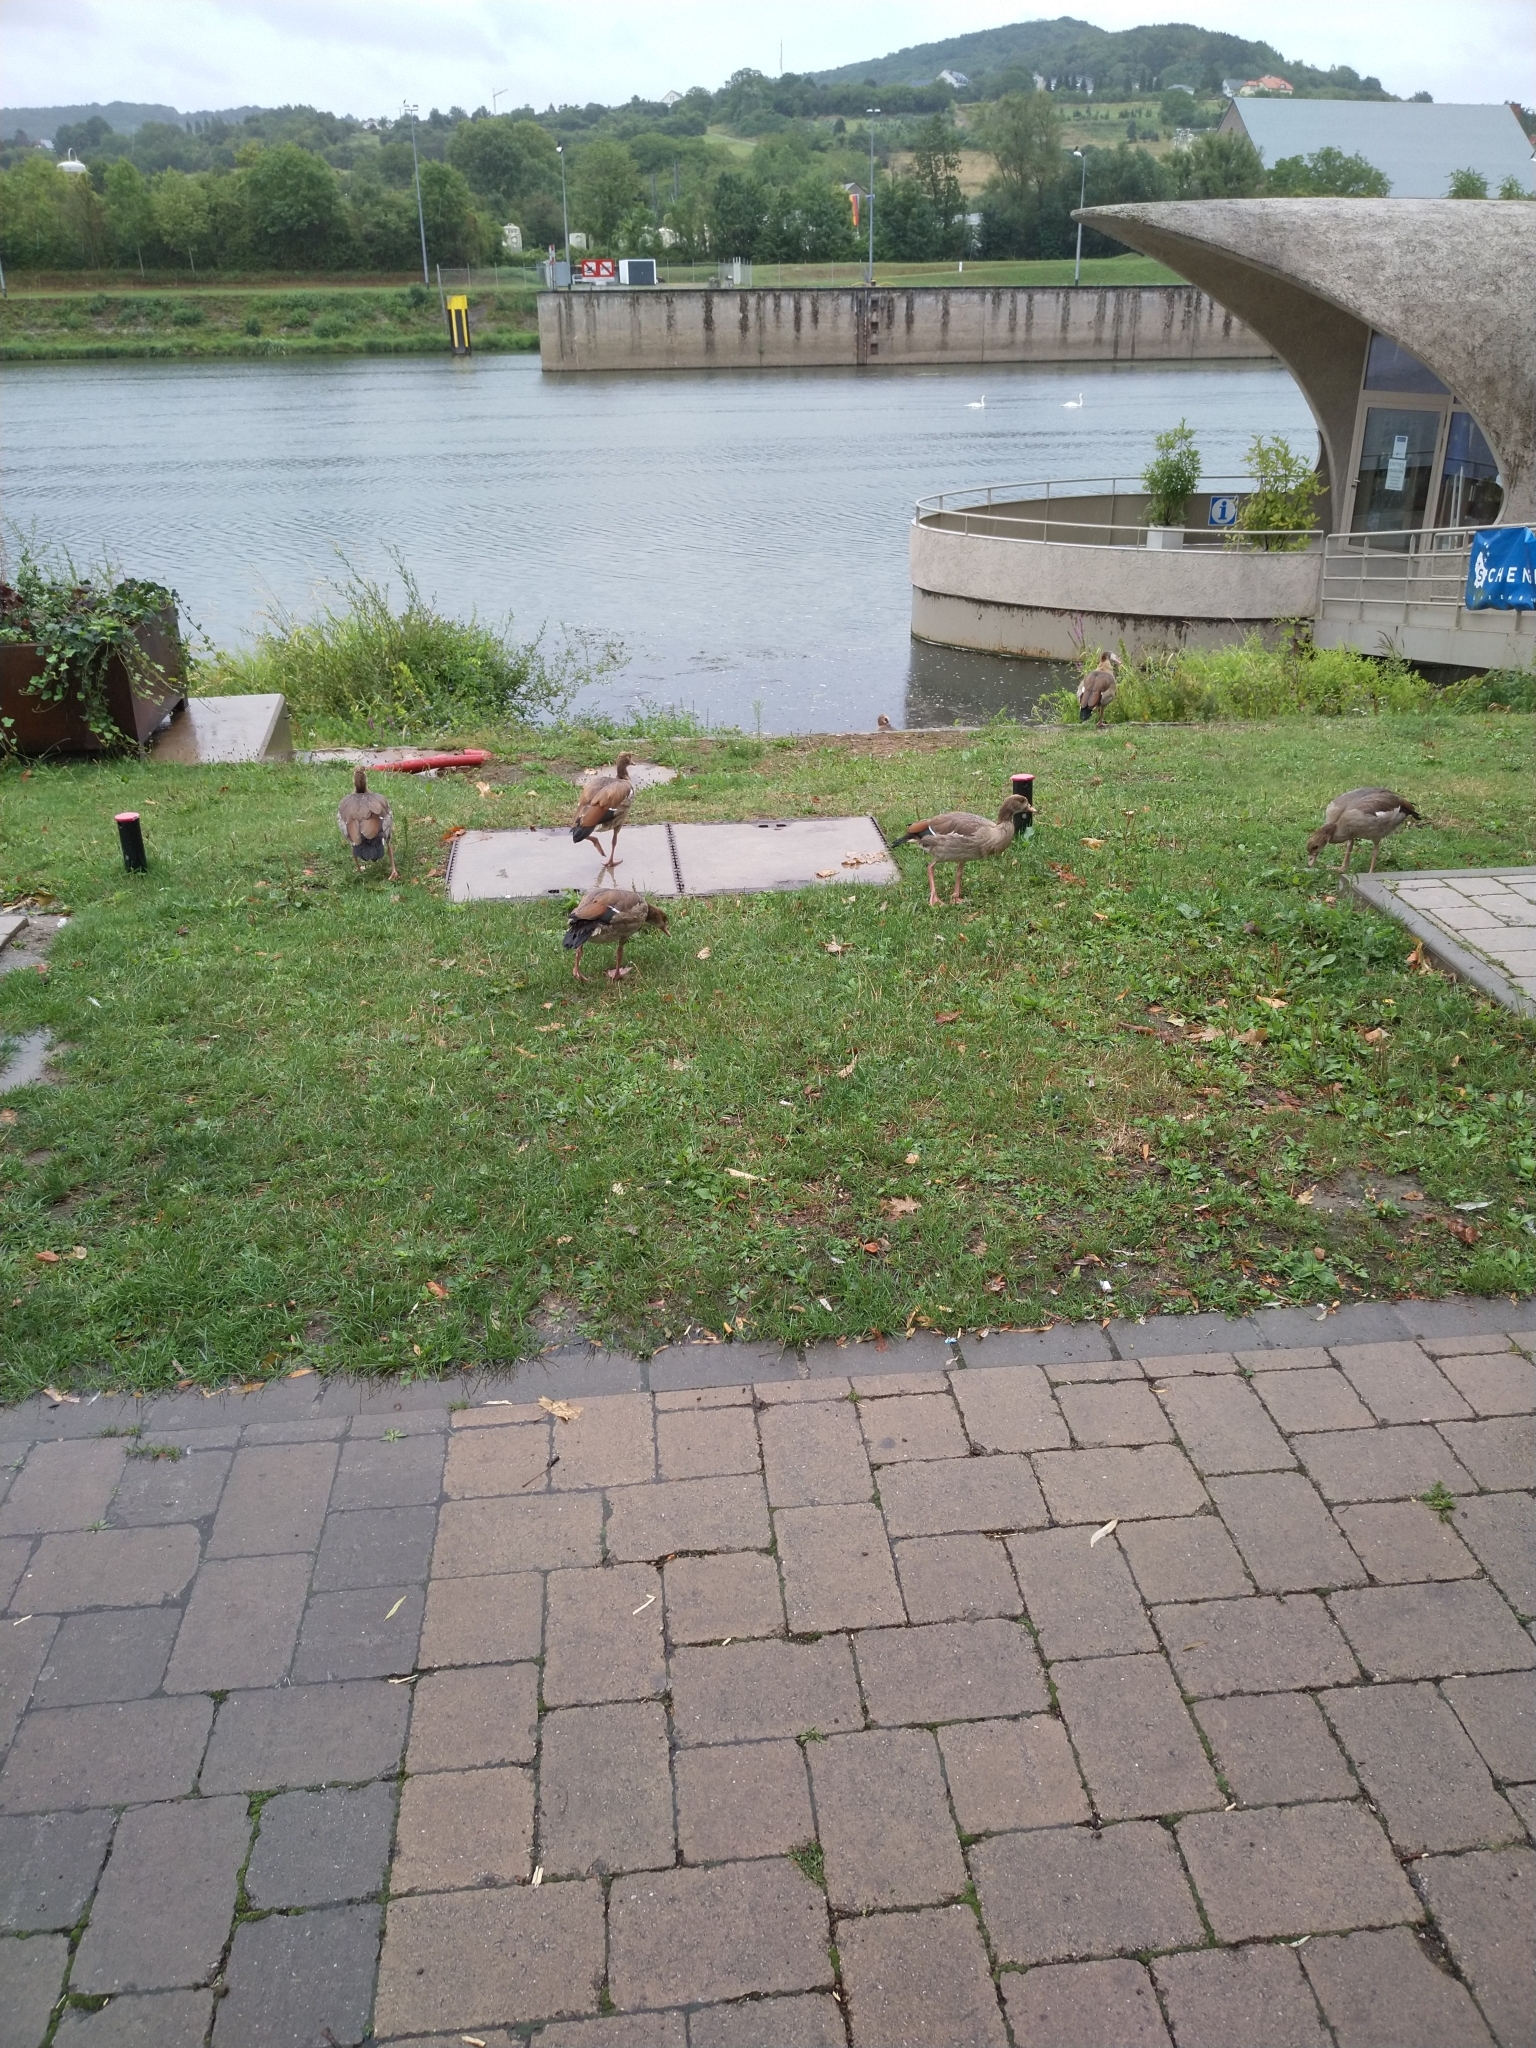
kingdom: Animalia
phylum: Chordata
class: Aves
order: Anseriformes
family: Anatidae
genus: Alopochen
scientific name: Alopochen aegyptiaca
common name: Egyptian goose
